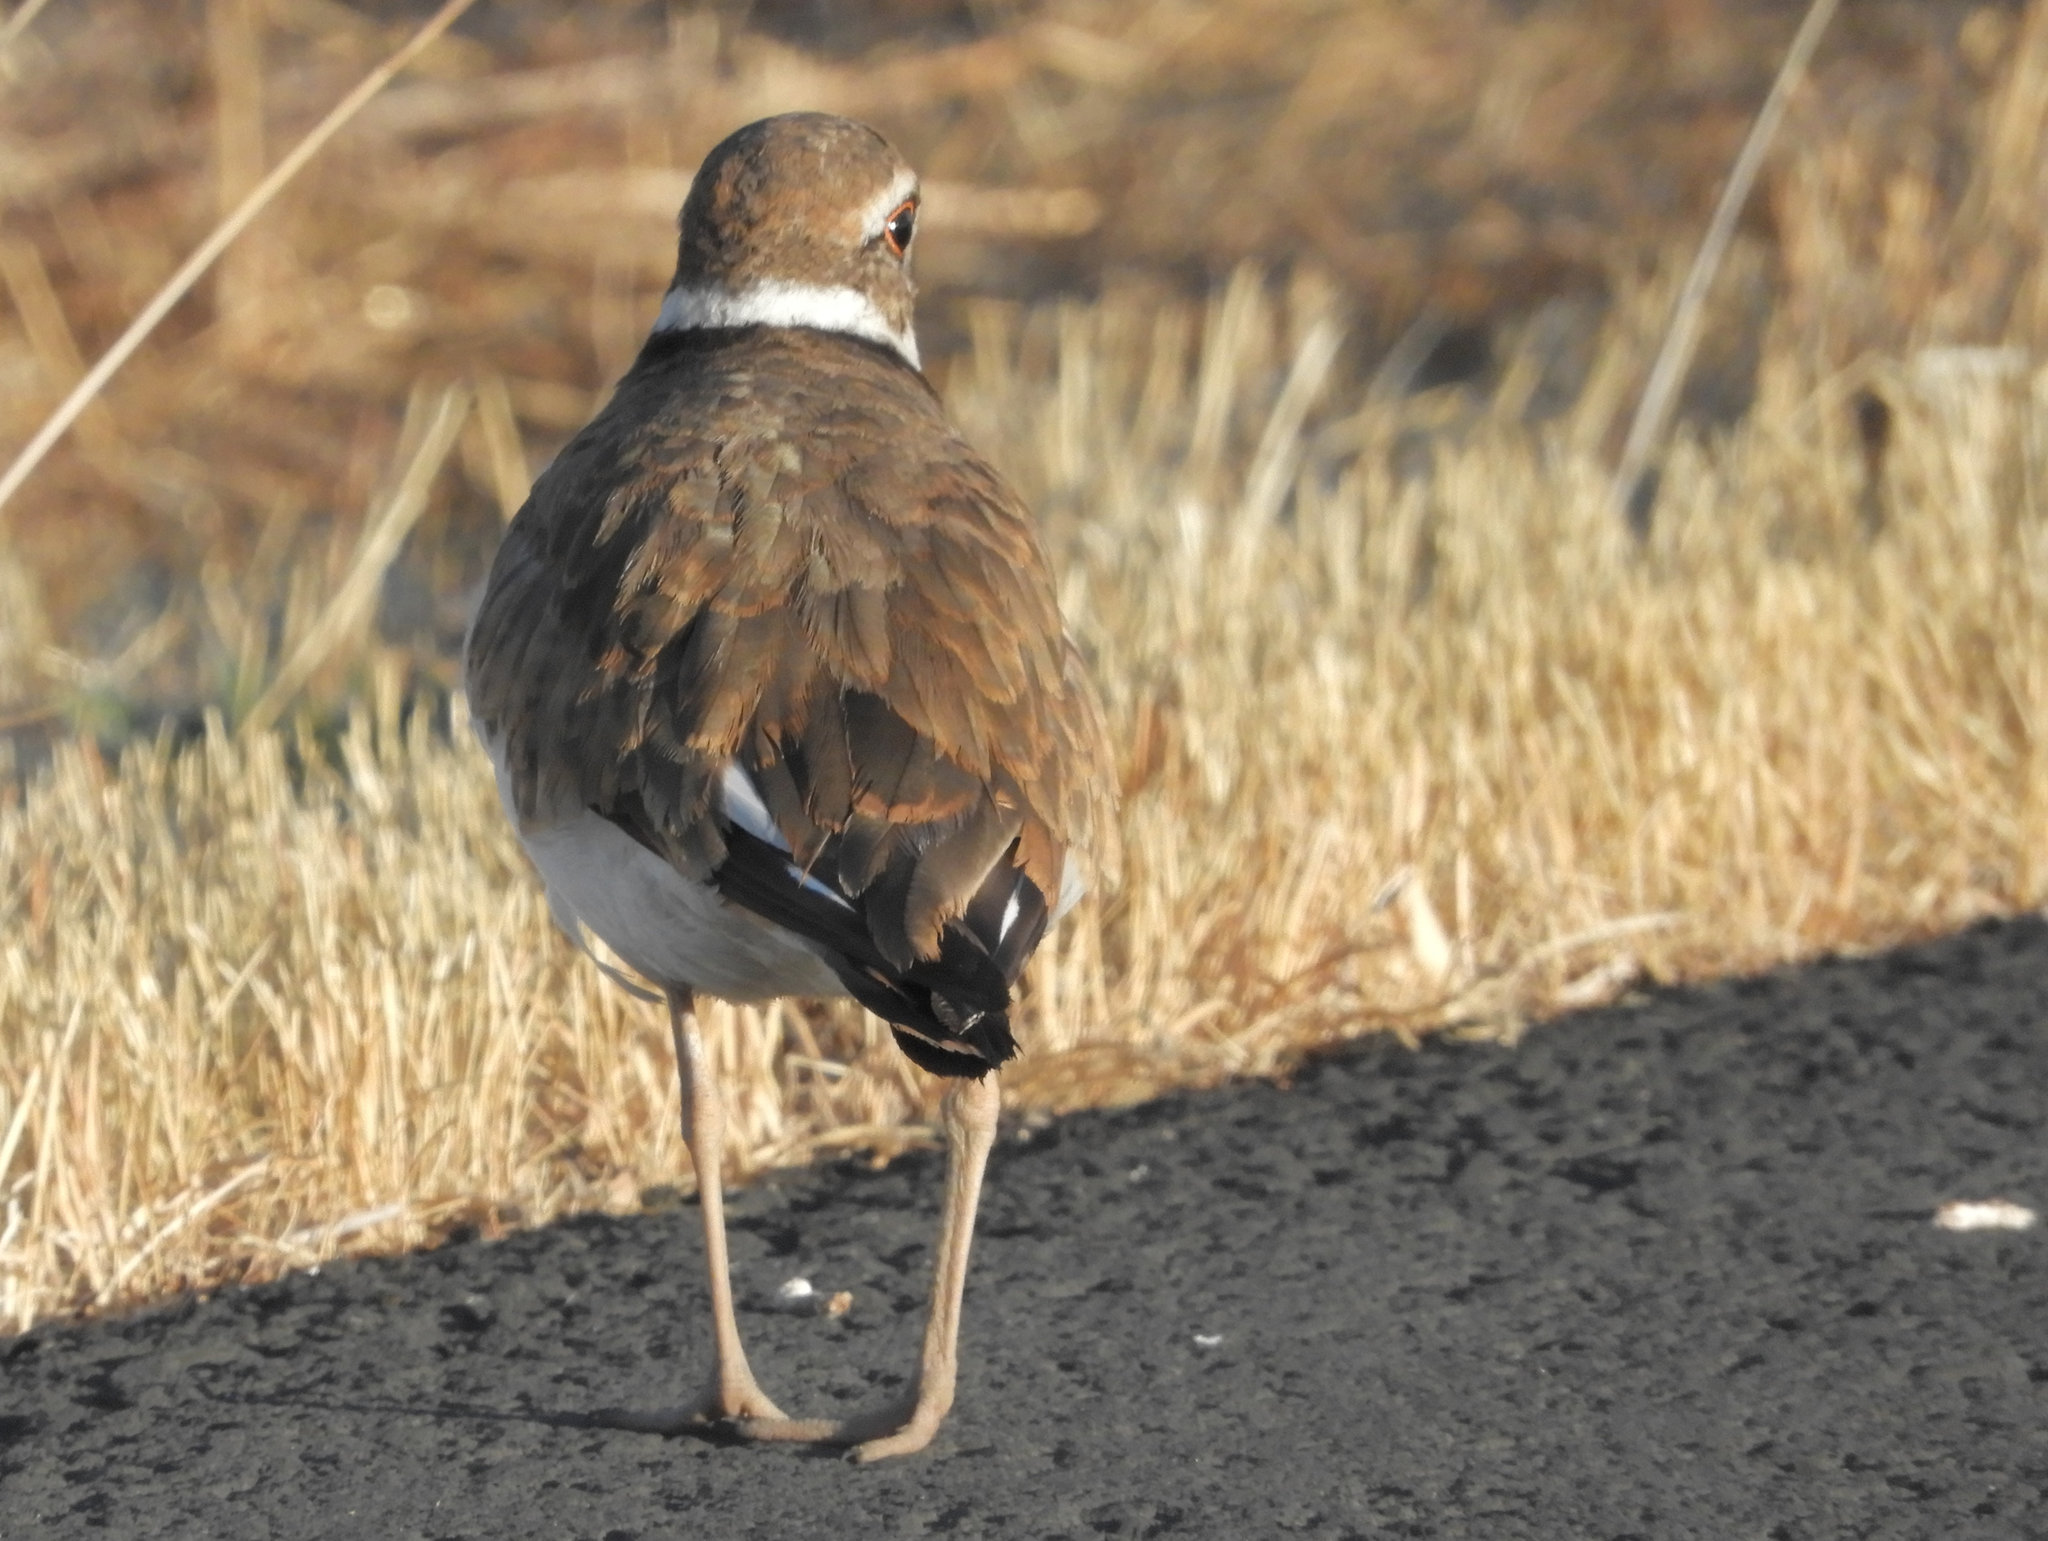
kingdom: Animalia
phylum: Chordata
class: Aves
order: Charadriiformes
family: Charadriidae
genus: Charadrius
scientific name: Charadrius vociferus
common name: Killdeer
